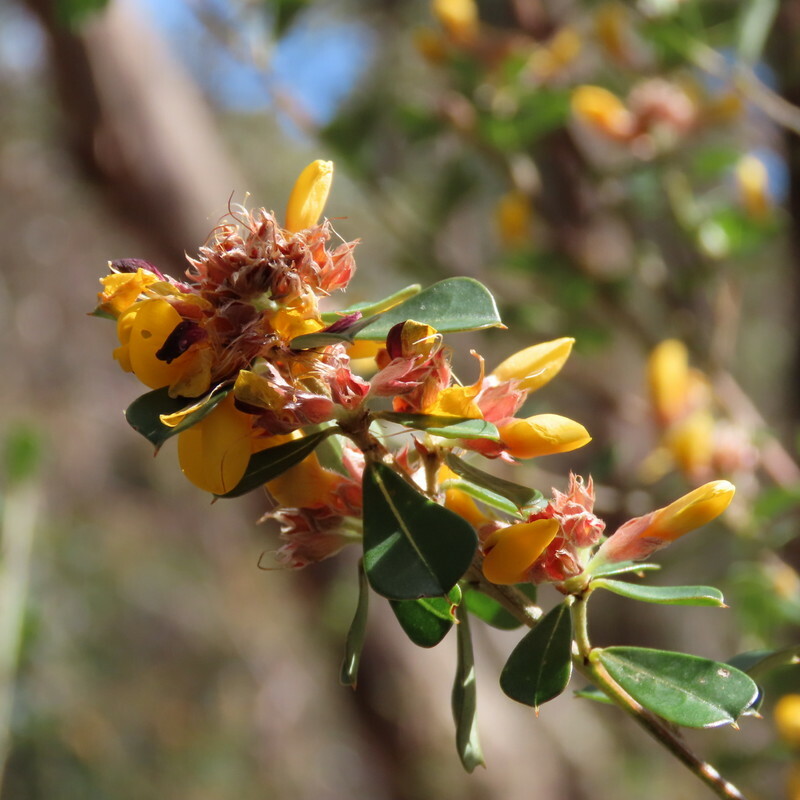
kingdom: Plantae
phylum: Tracheophyta
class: Magnoliopsida
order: Fabales
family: Fabaceae
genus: Pultenaea
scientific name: Pultenaea daphnoides
